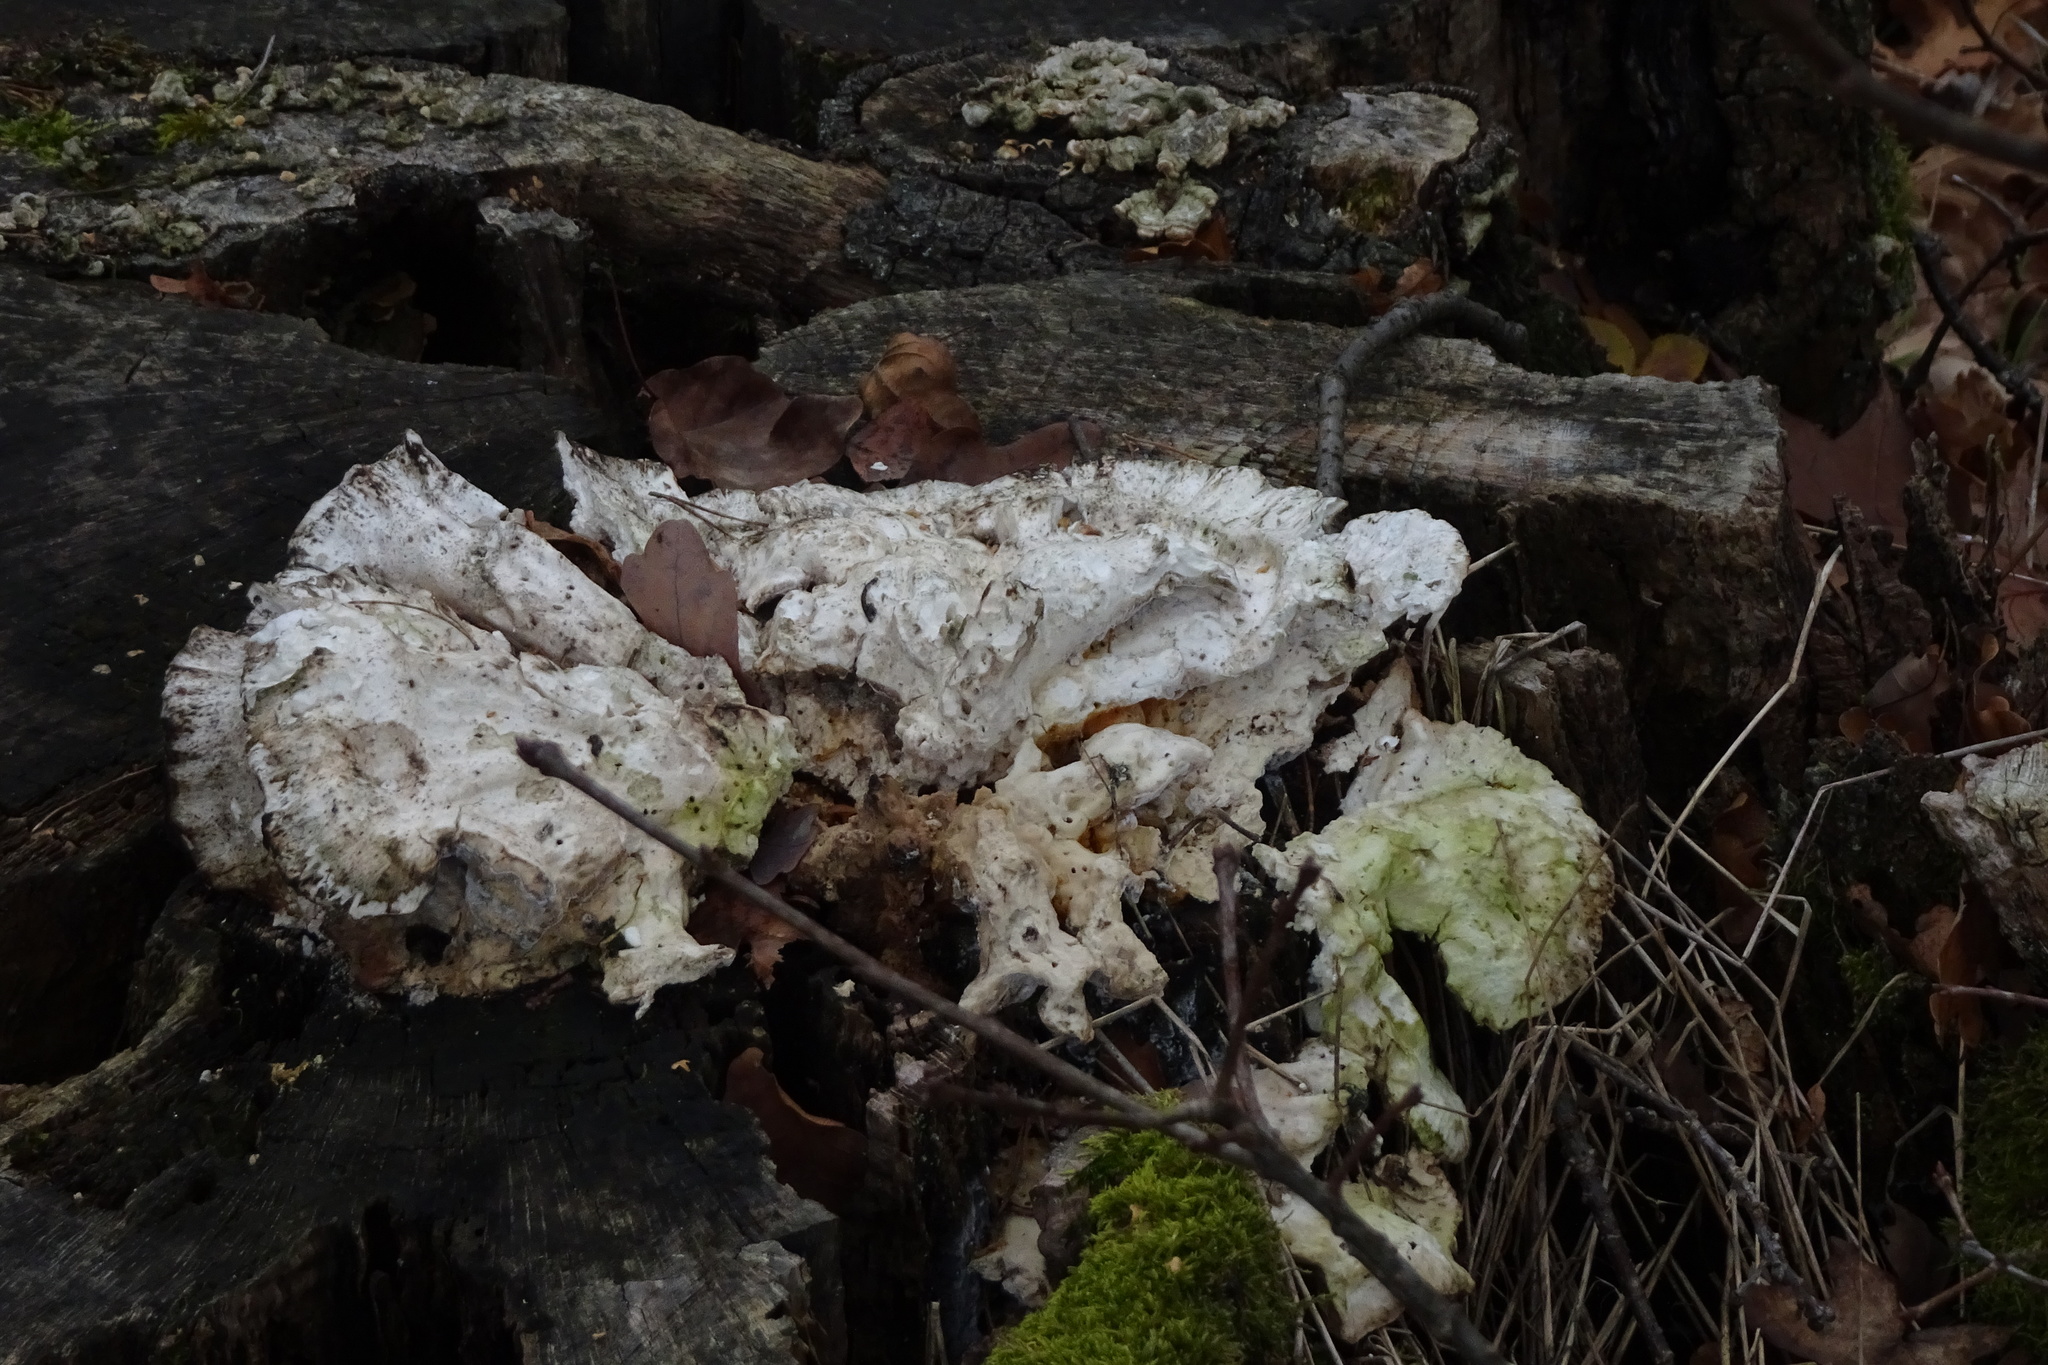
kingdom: Fungi
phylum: Basidiomycota
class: Agaricomycetes
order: Polyporales
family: Laetiporaceae
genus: Laetiporus
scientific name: Laetiporus sulphureus
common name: Chicken of the woods
